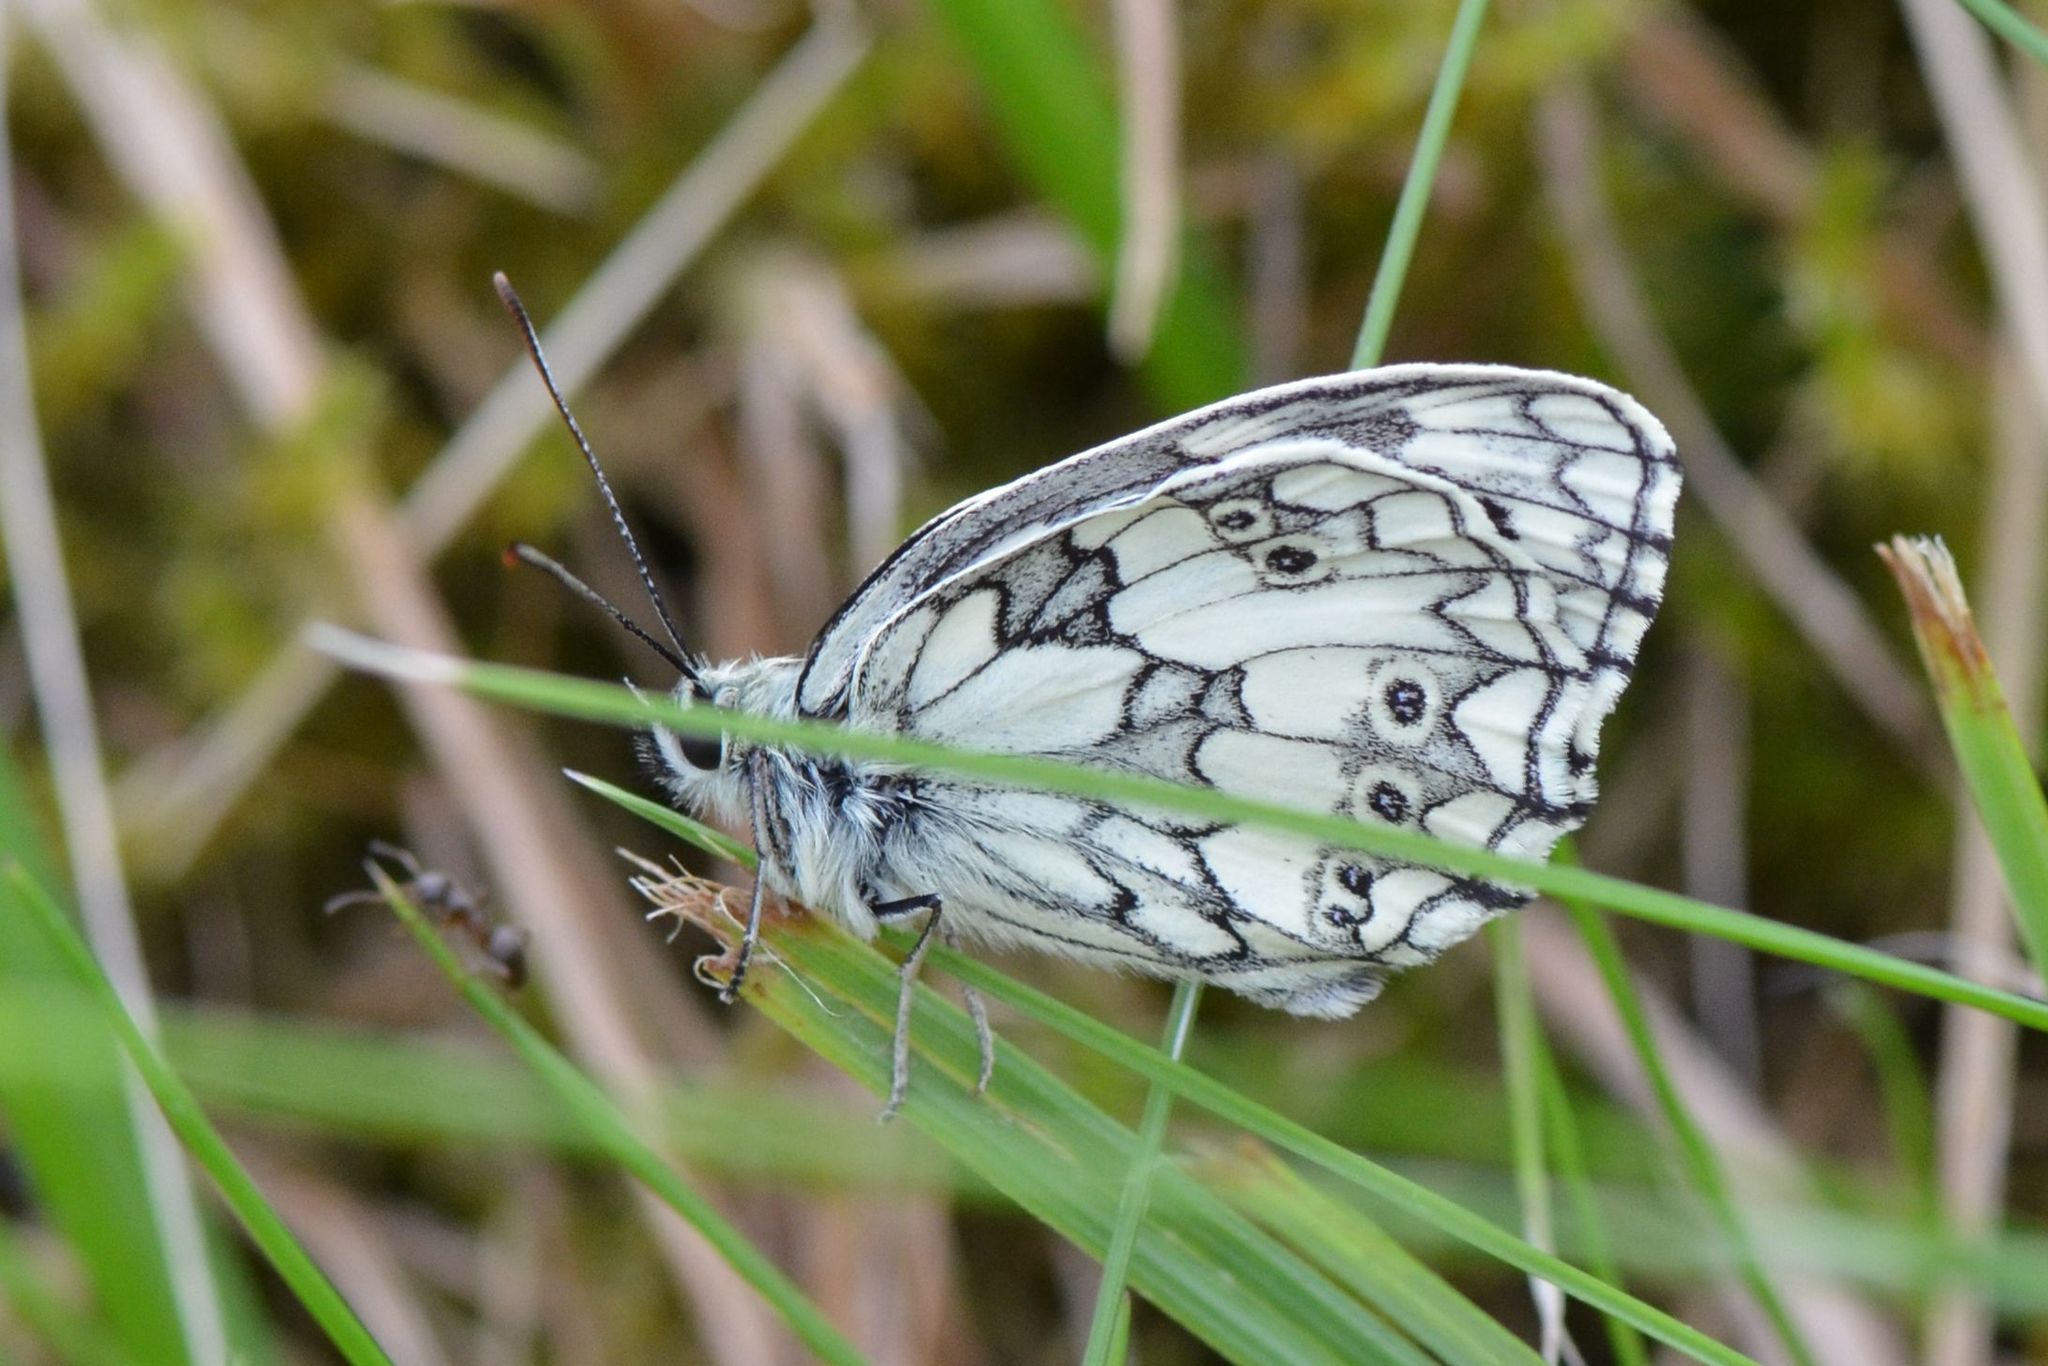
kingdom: Animalia
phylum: Arthropoda
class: Insecta
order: Lepidoptera
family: Nymphalidae
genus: Melanargia
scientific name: Melanargia galathea
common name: Marbled white
